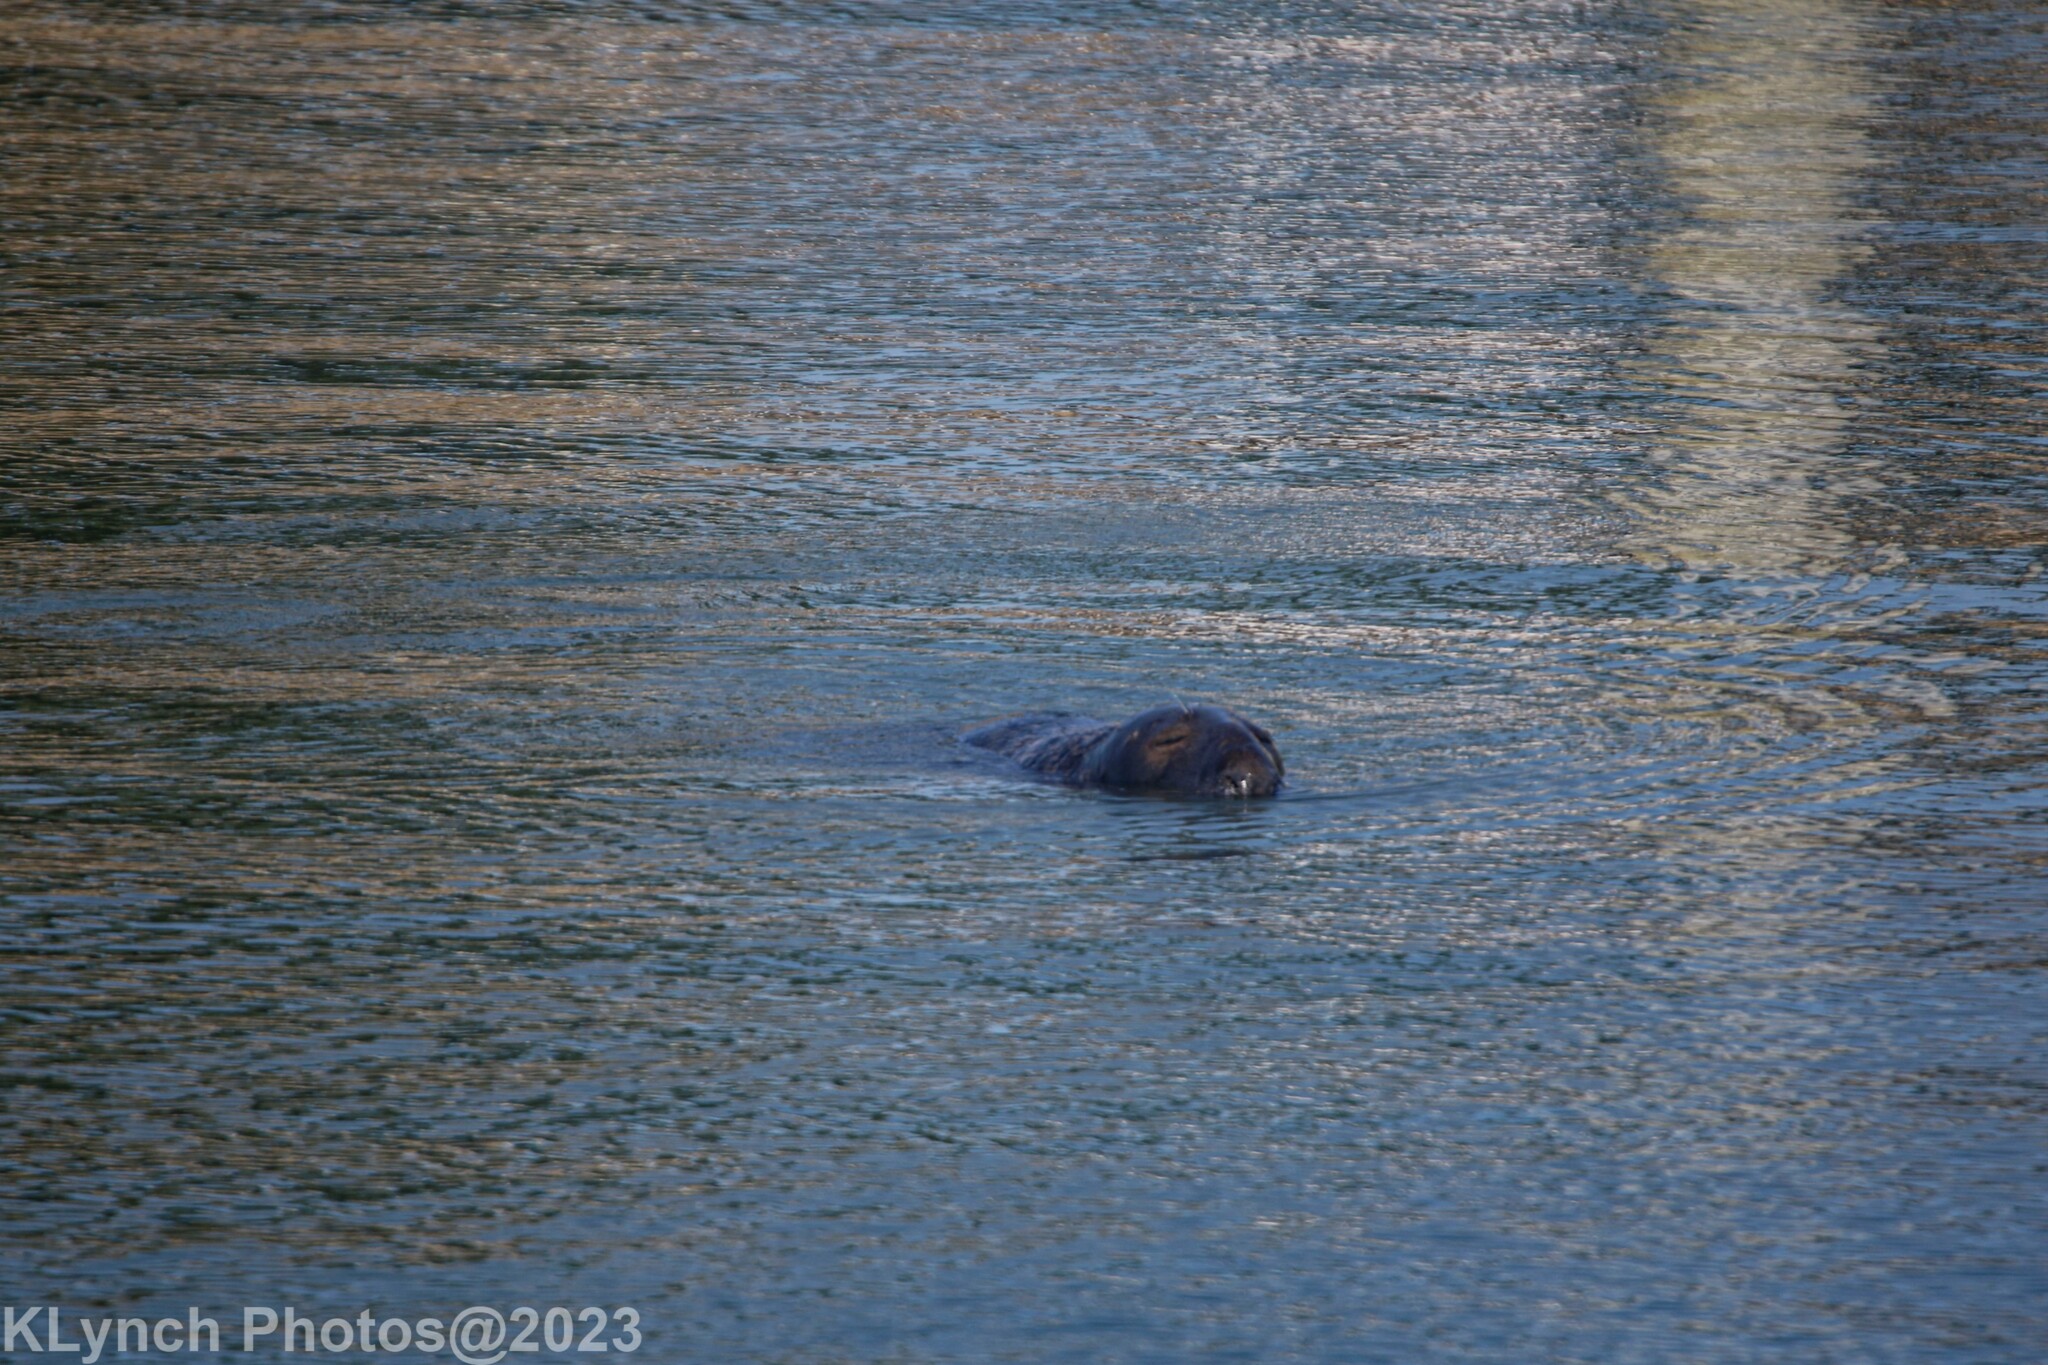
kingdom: Animalia
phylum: Chordata
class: Mammalia
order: Carnivora
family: Phocidae
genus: Halichoerus
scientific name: Halichoerus grypus
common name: Grey seal
